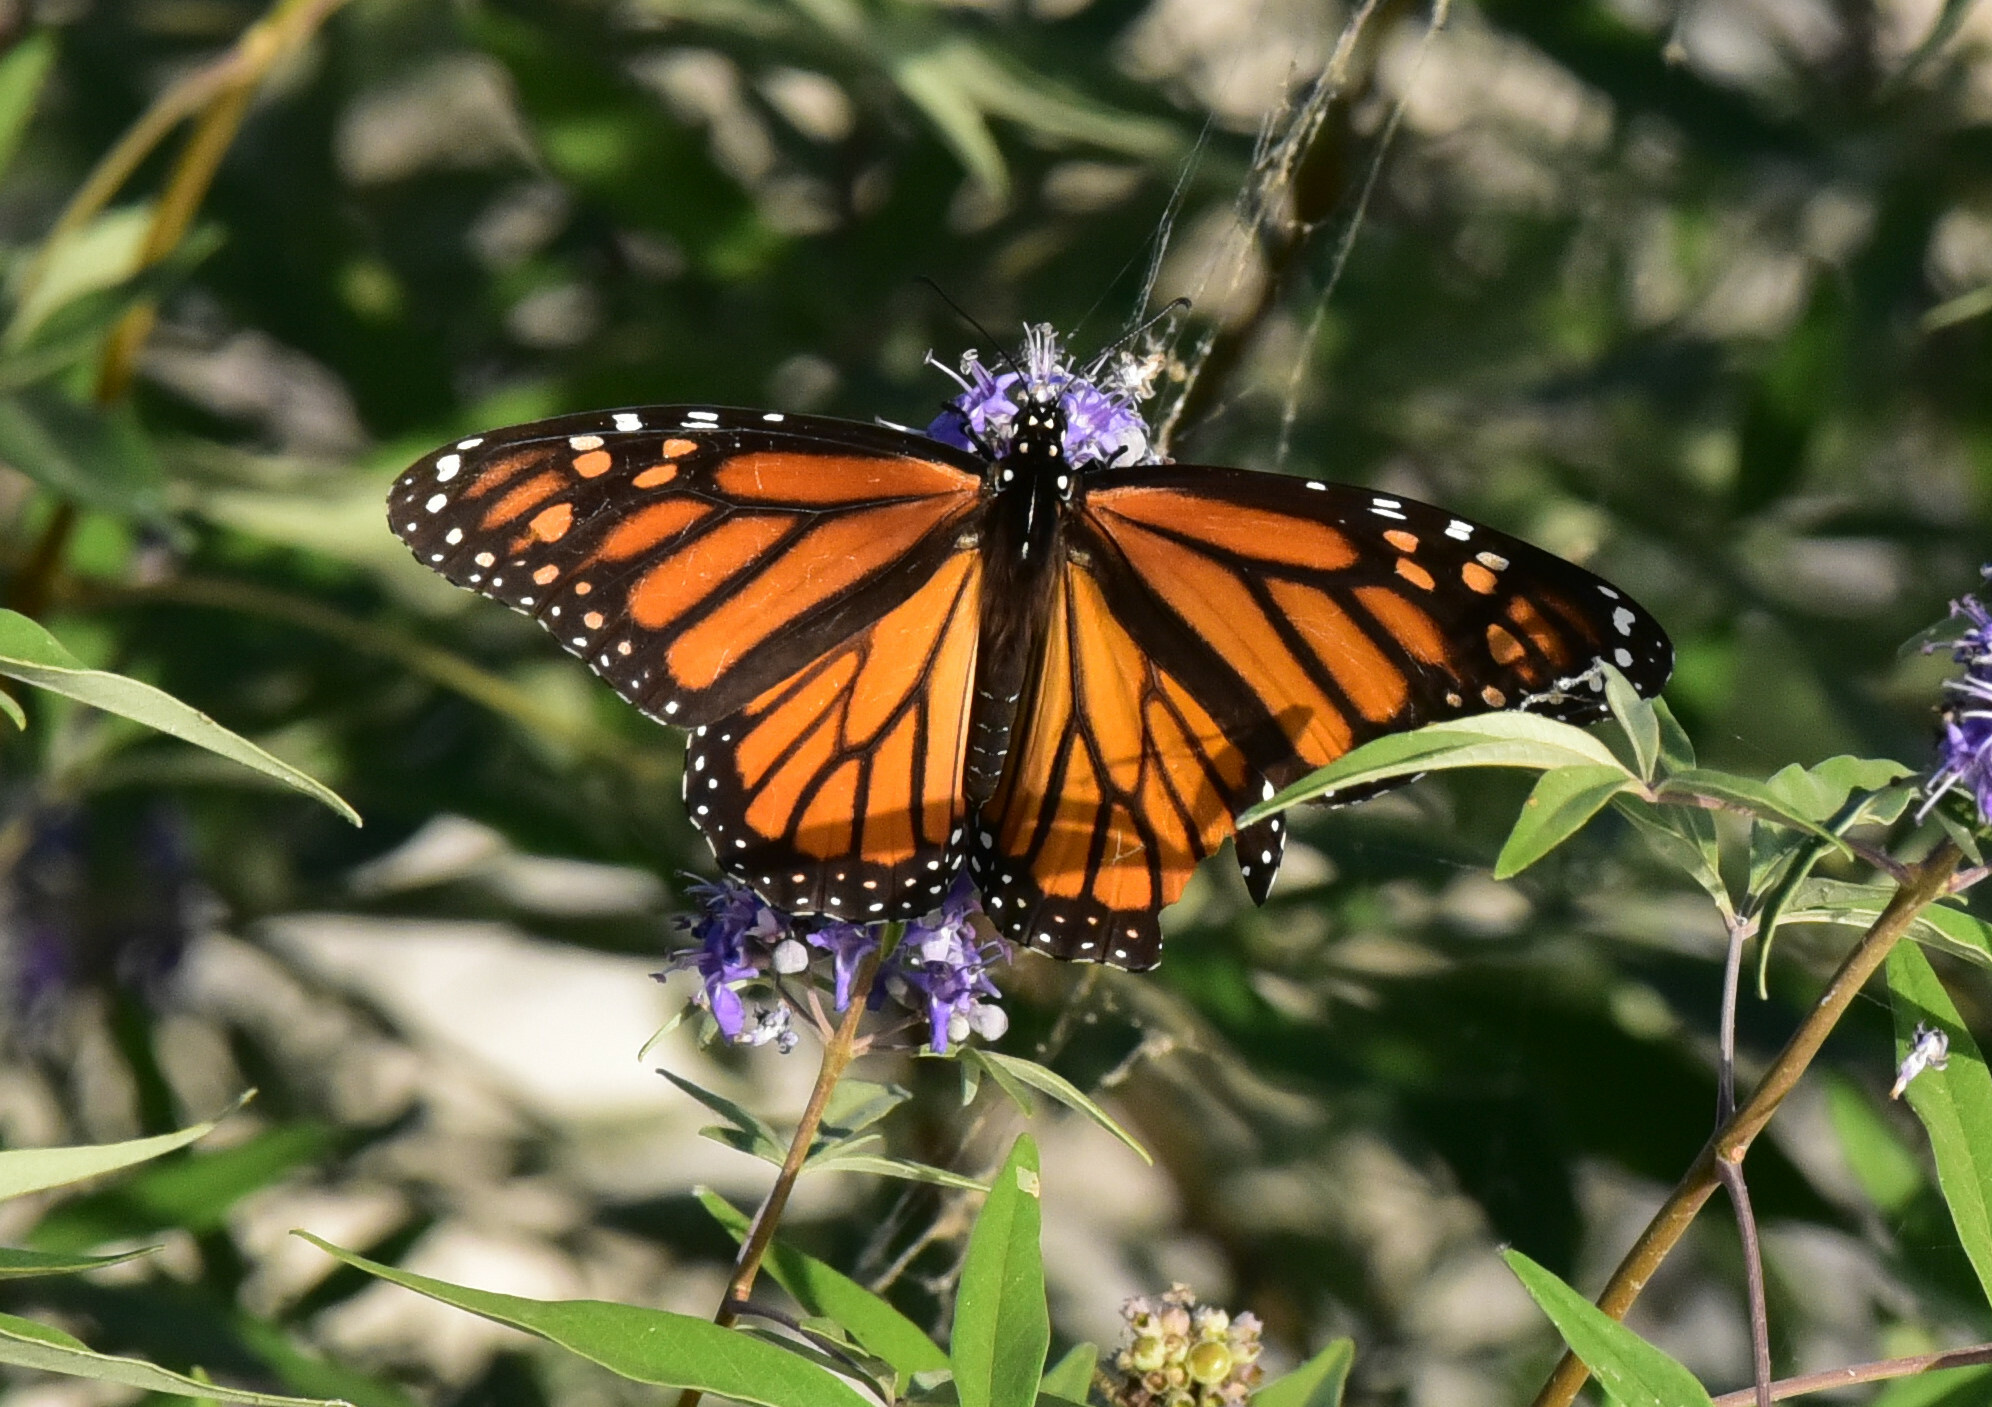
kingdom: Animalia
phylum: Arthropoda
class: Insecta
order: Lepidoptera
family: Nymphalidae
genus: Danaus
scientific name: Danaus plexippus
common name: Monarch
